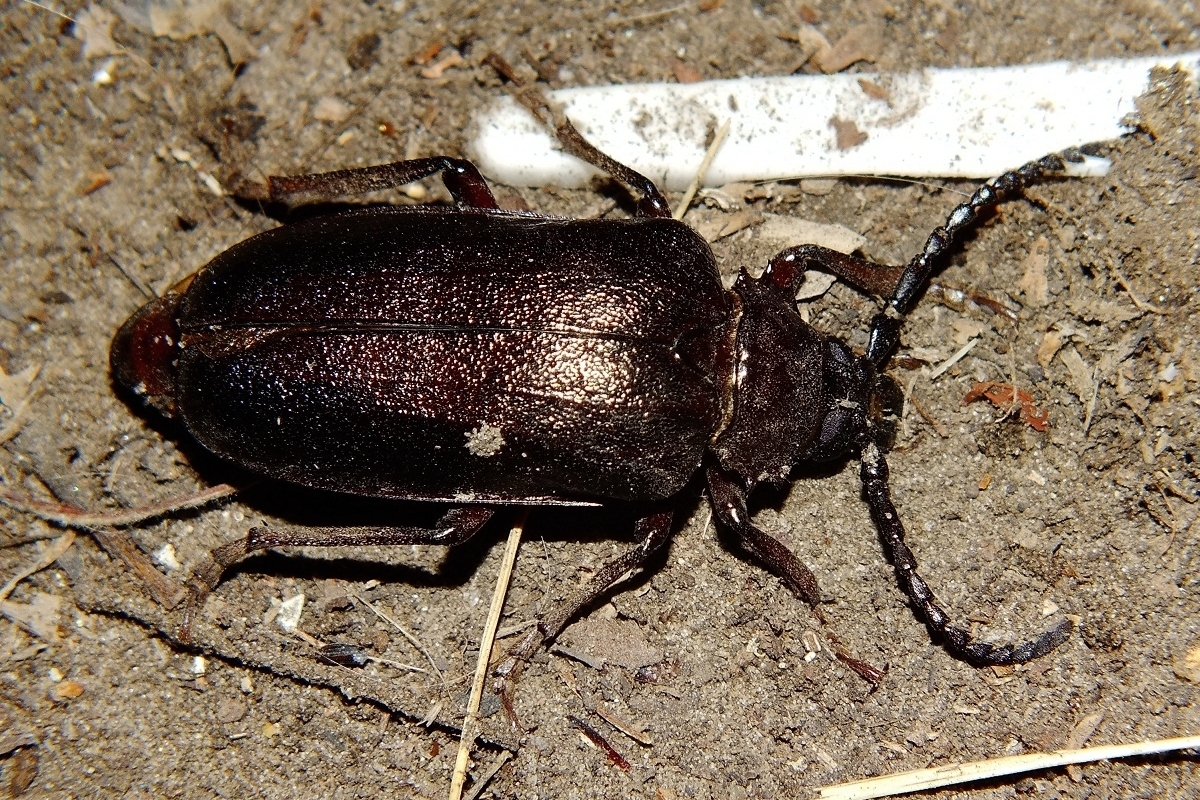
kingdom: Animalia
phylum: Arthropoda
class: Insecta
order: Coleoptera
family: Cerambycidae
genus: Prionus
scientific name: Prionus coriarius
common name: Tanner beetle
